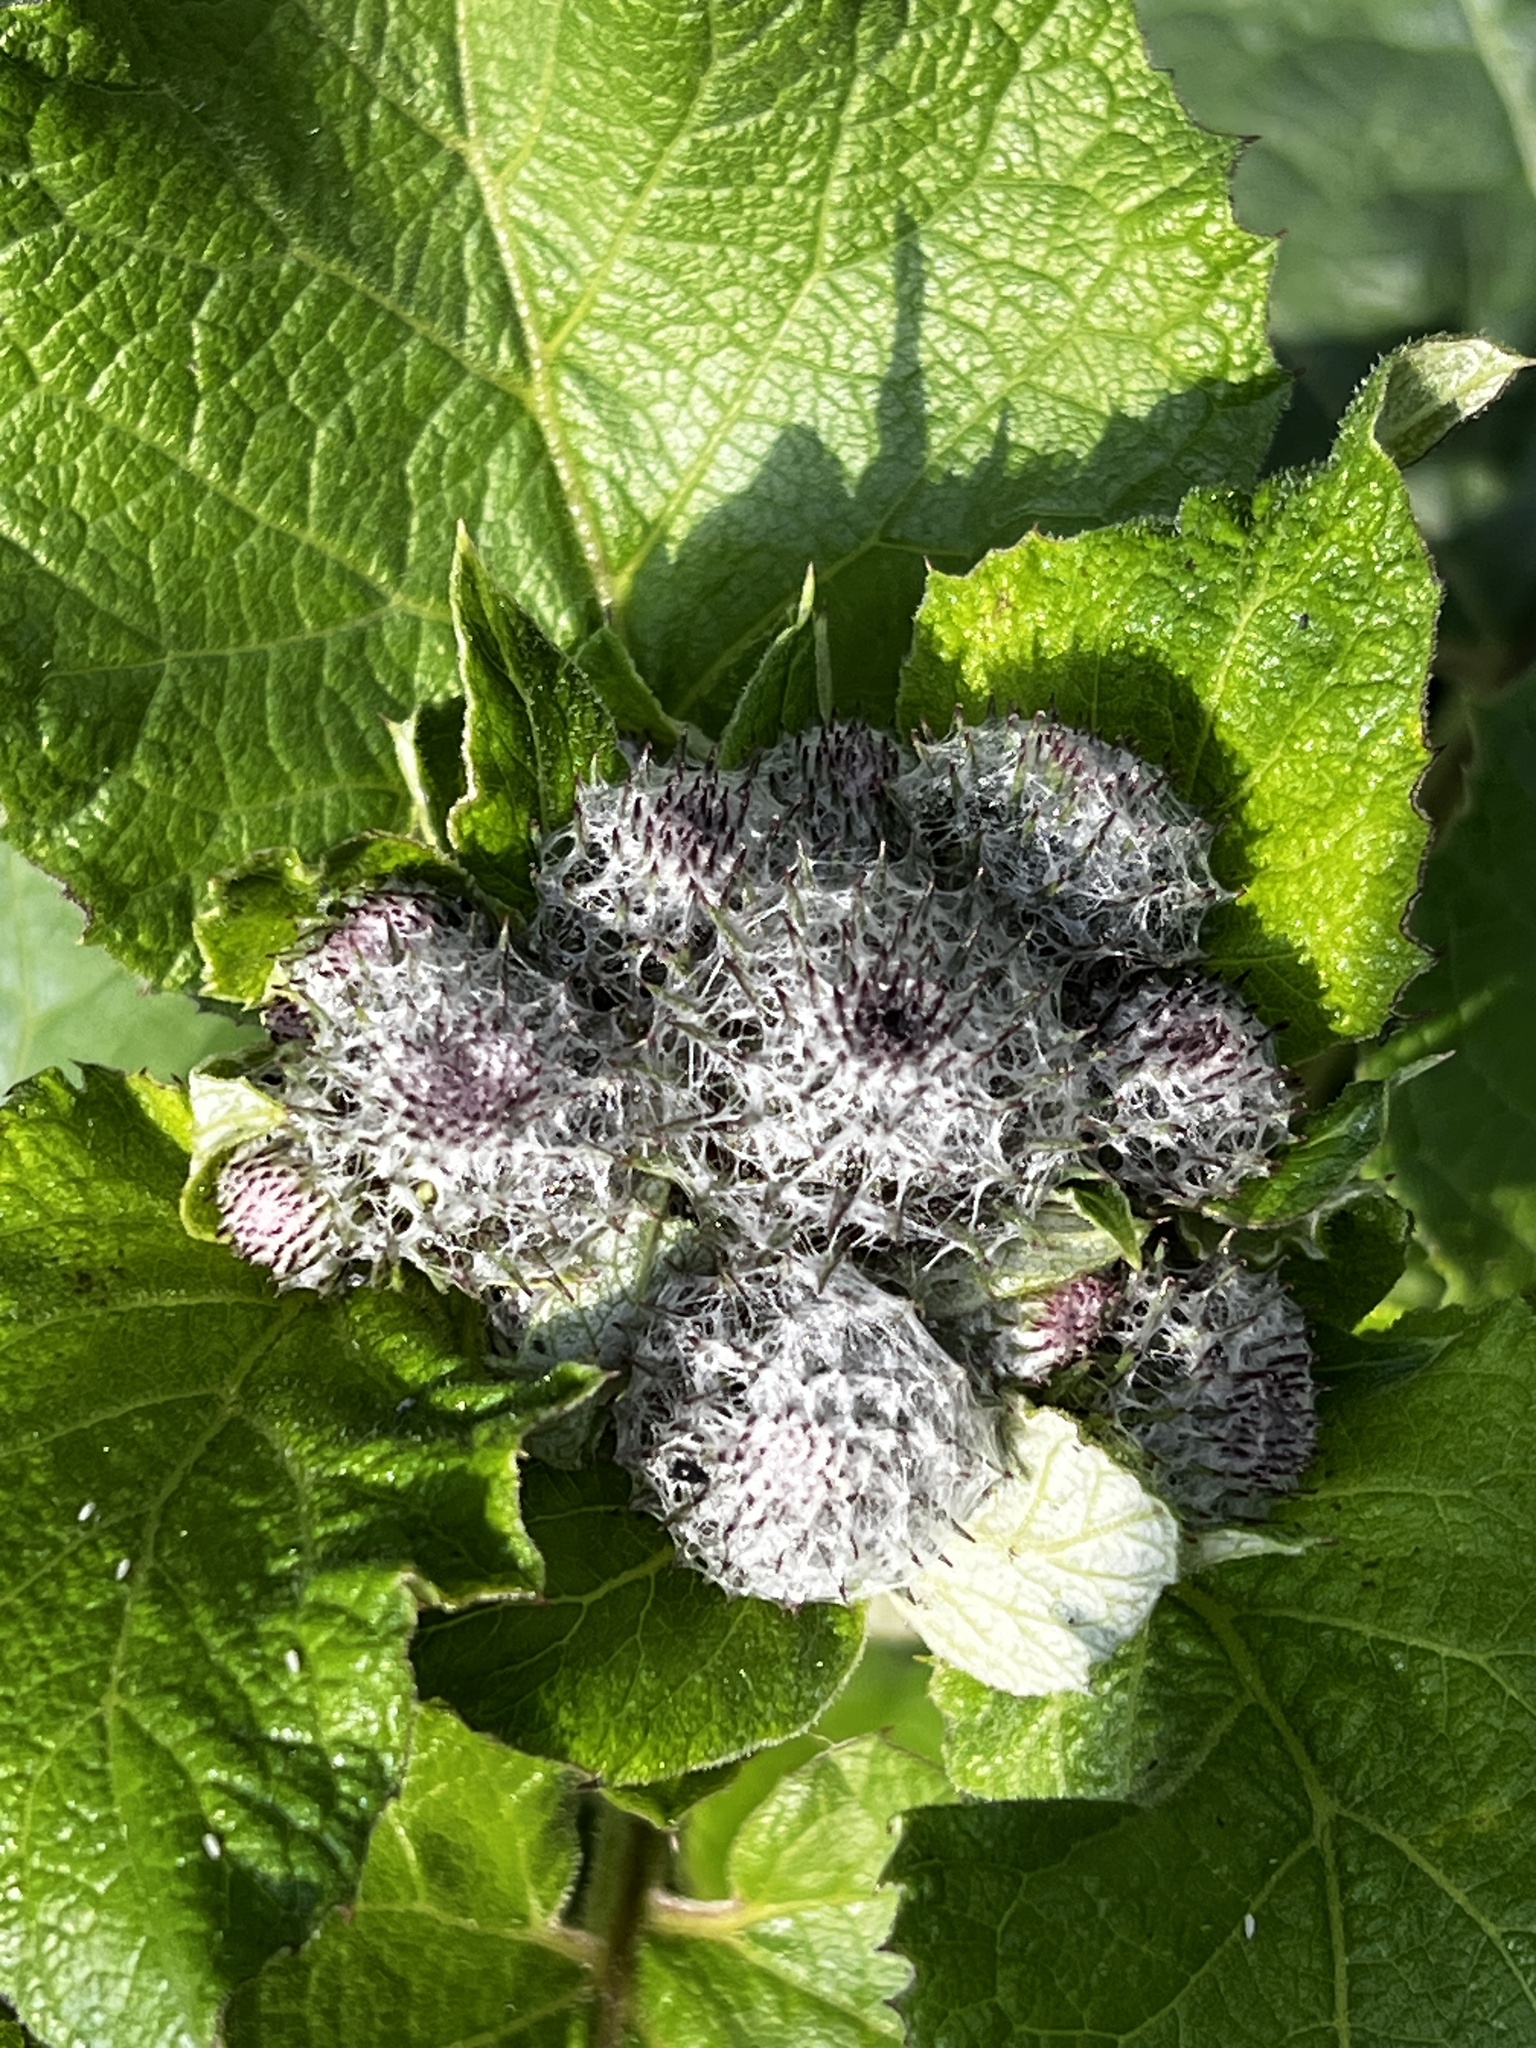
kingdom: Plantae
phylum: Tracheophyta
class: Magnoliopsida
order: Asterales
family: Asteraceae
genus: Arctium
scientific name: Arctium tomentosum
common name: Woolly burdock
